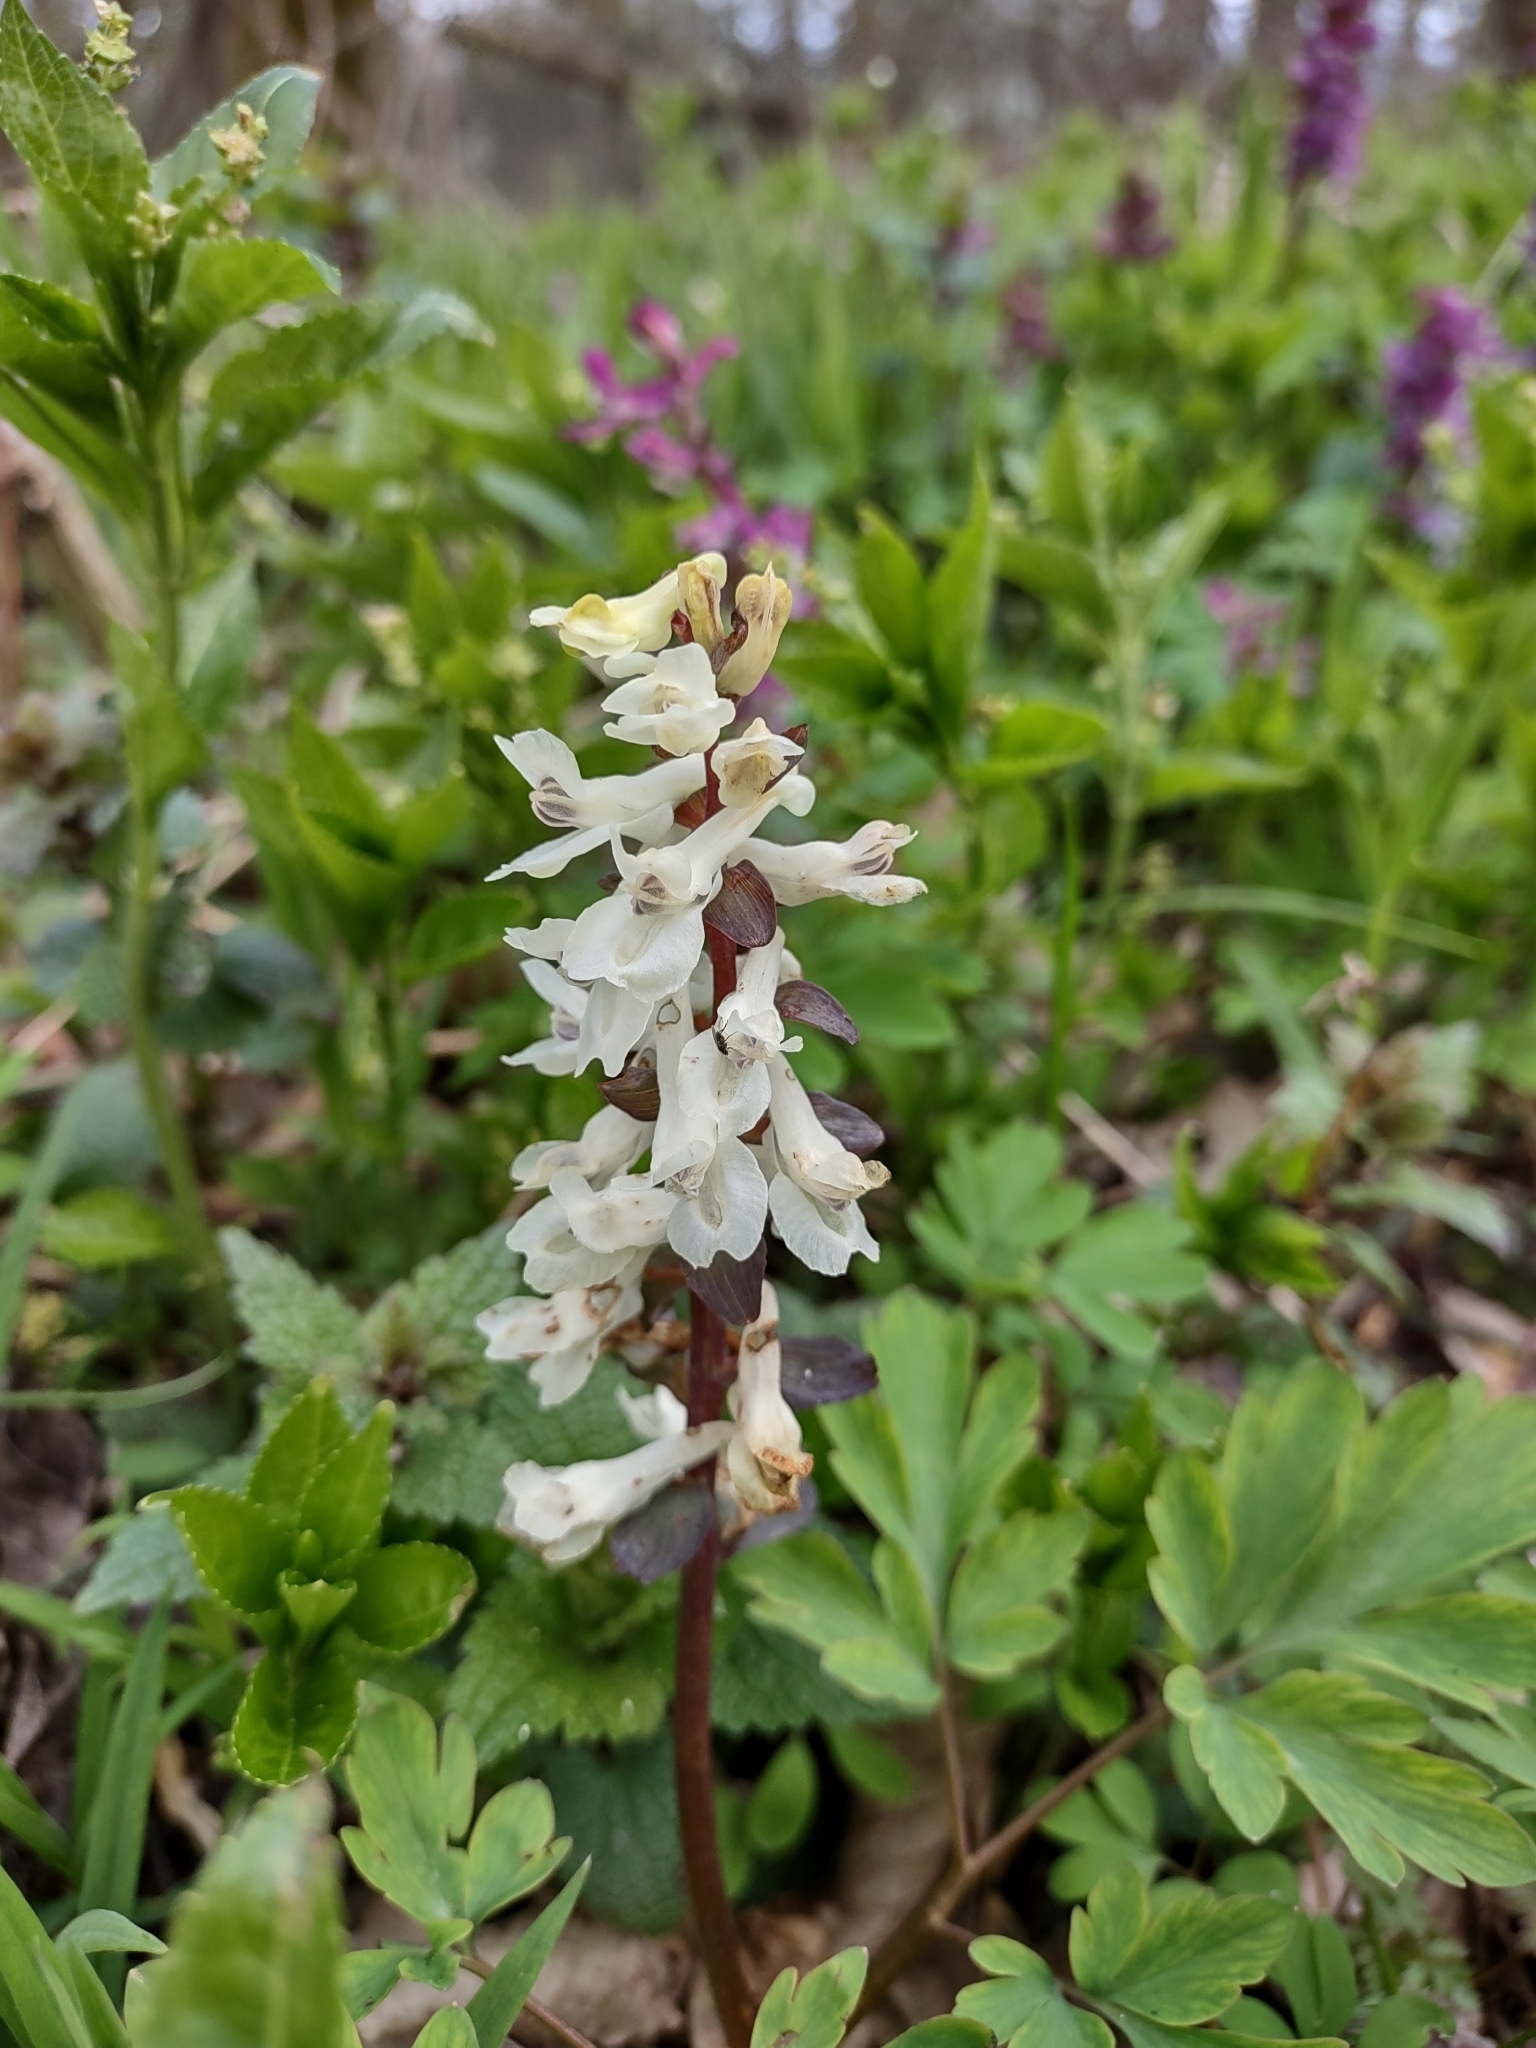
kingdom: Plantae
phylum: Tracheophyta
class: Magnoliopsida
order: Ranunculales
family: Papaveraceae
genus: Corydalis
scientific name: Corydalis cava
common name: Hollowroot
